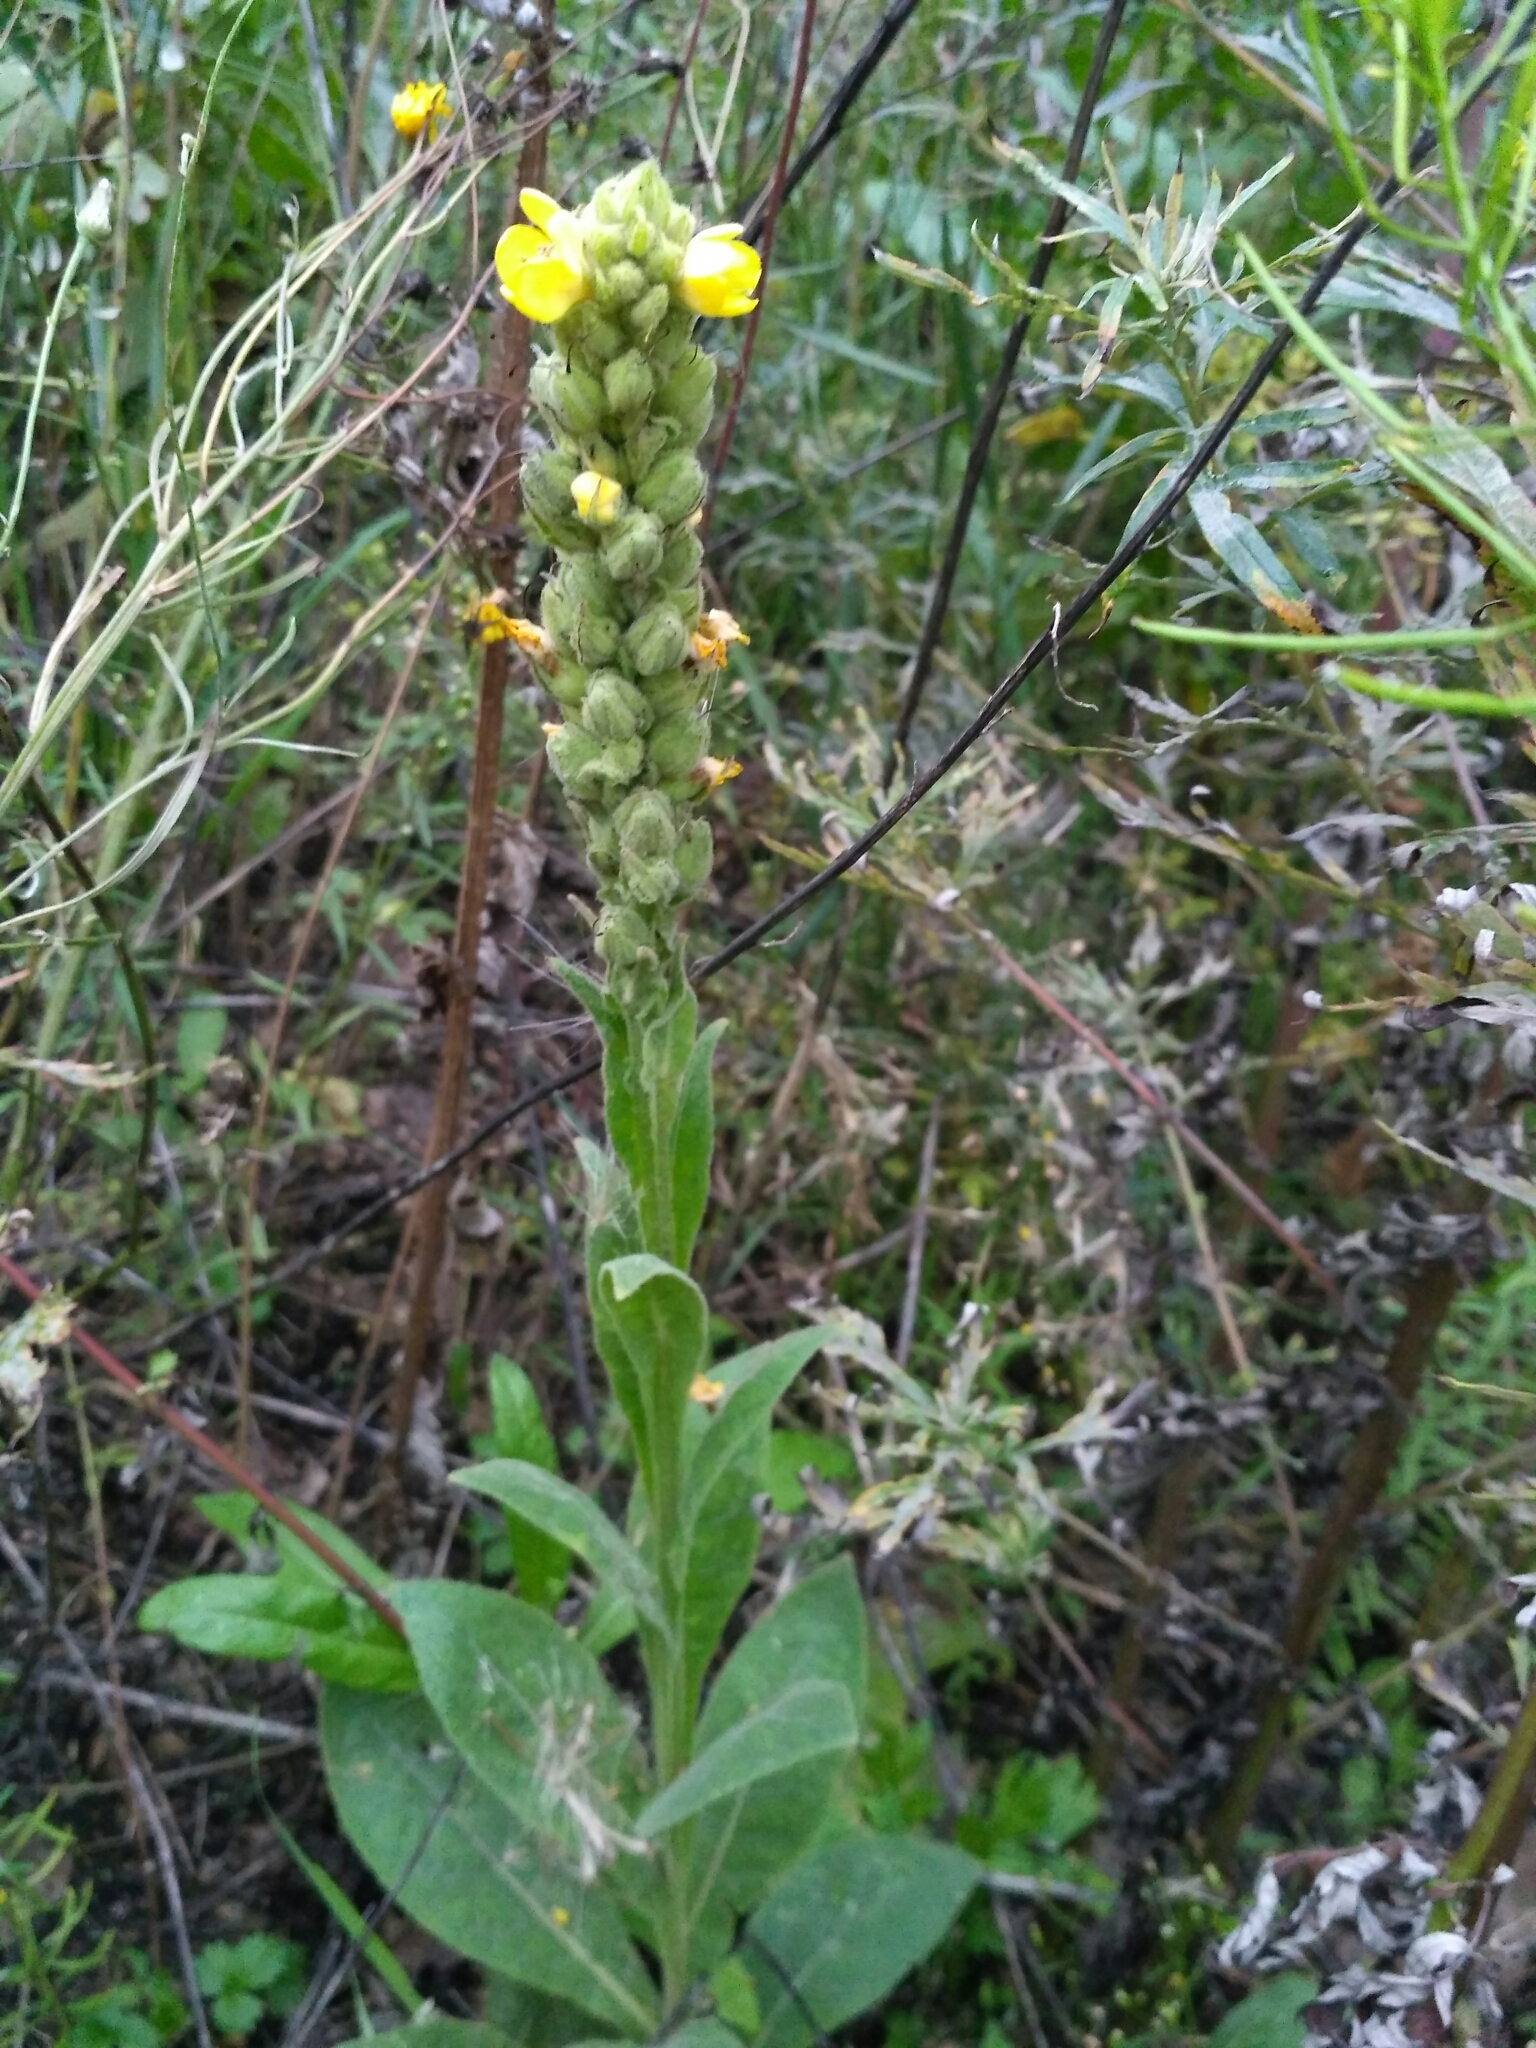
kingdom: Plantae
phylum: Tracheophyta
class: Magnoliopsida
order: Lamiales
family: Scrophulariaceae
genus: Verbascum
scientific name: Verbascum thapsus
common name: Common mullein
